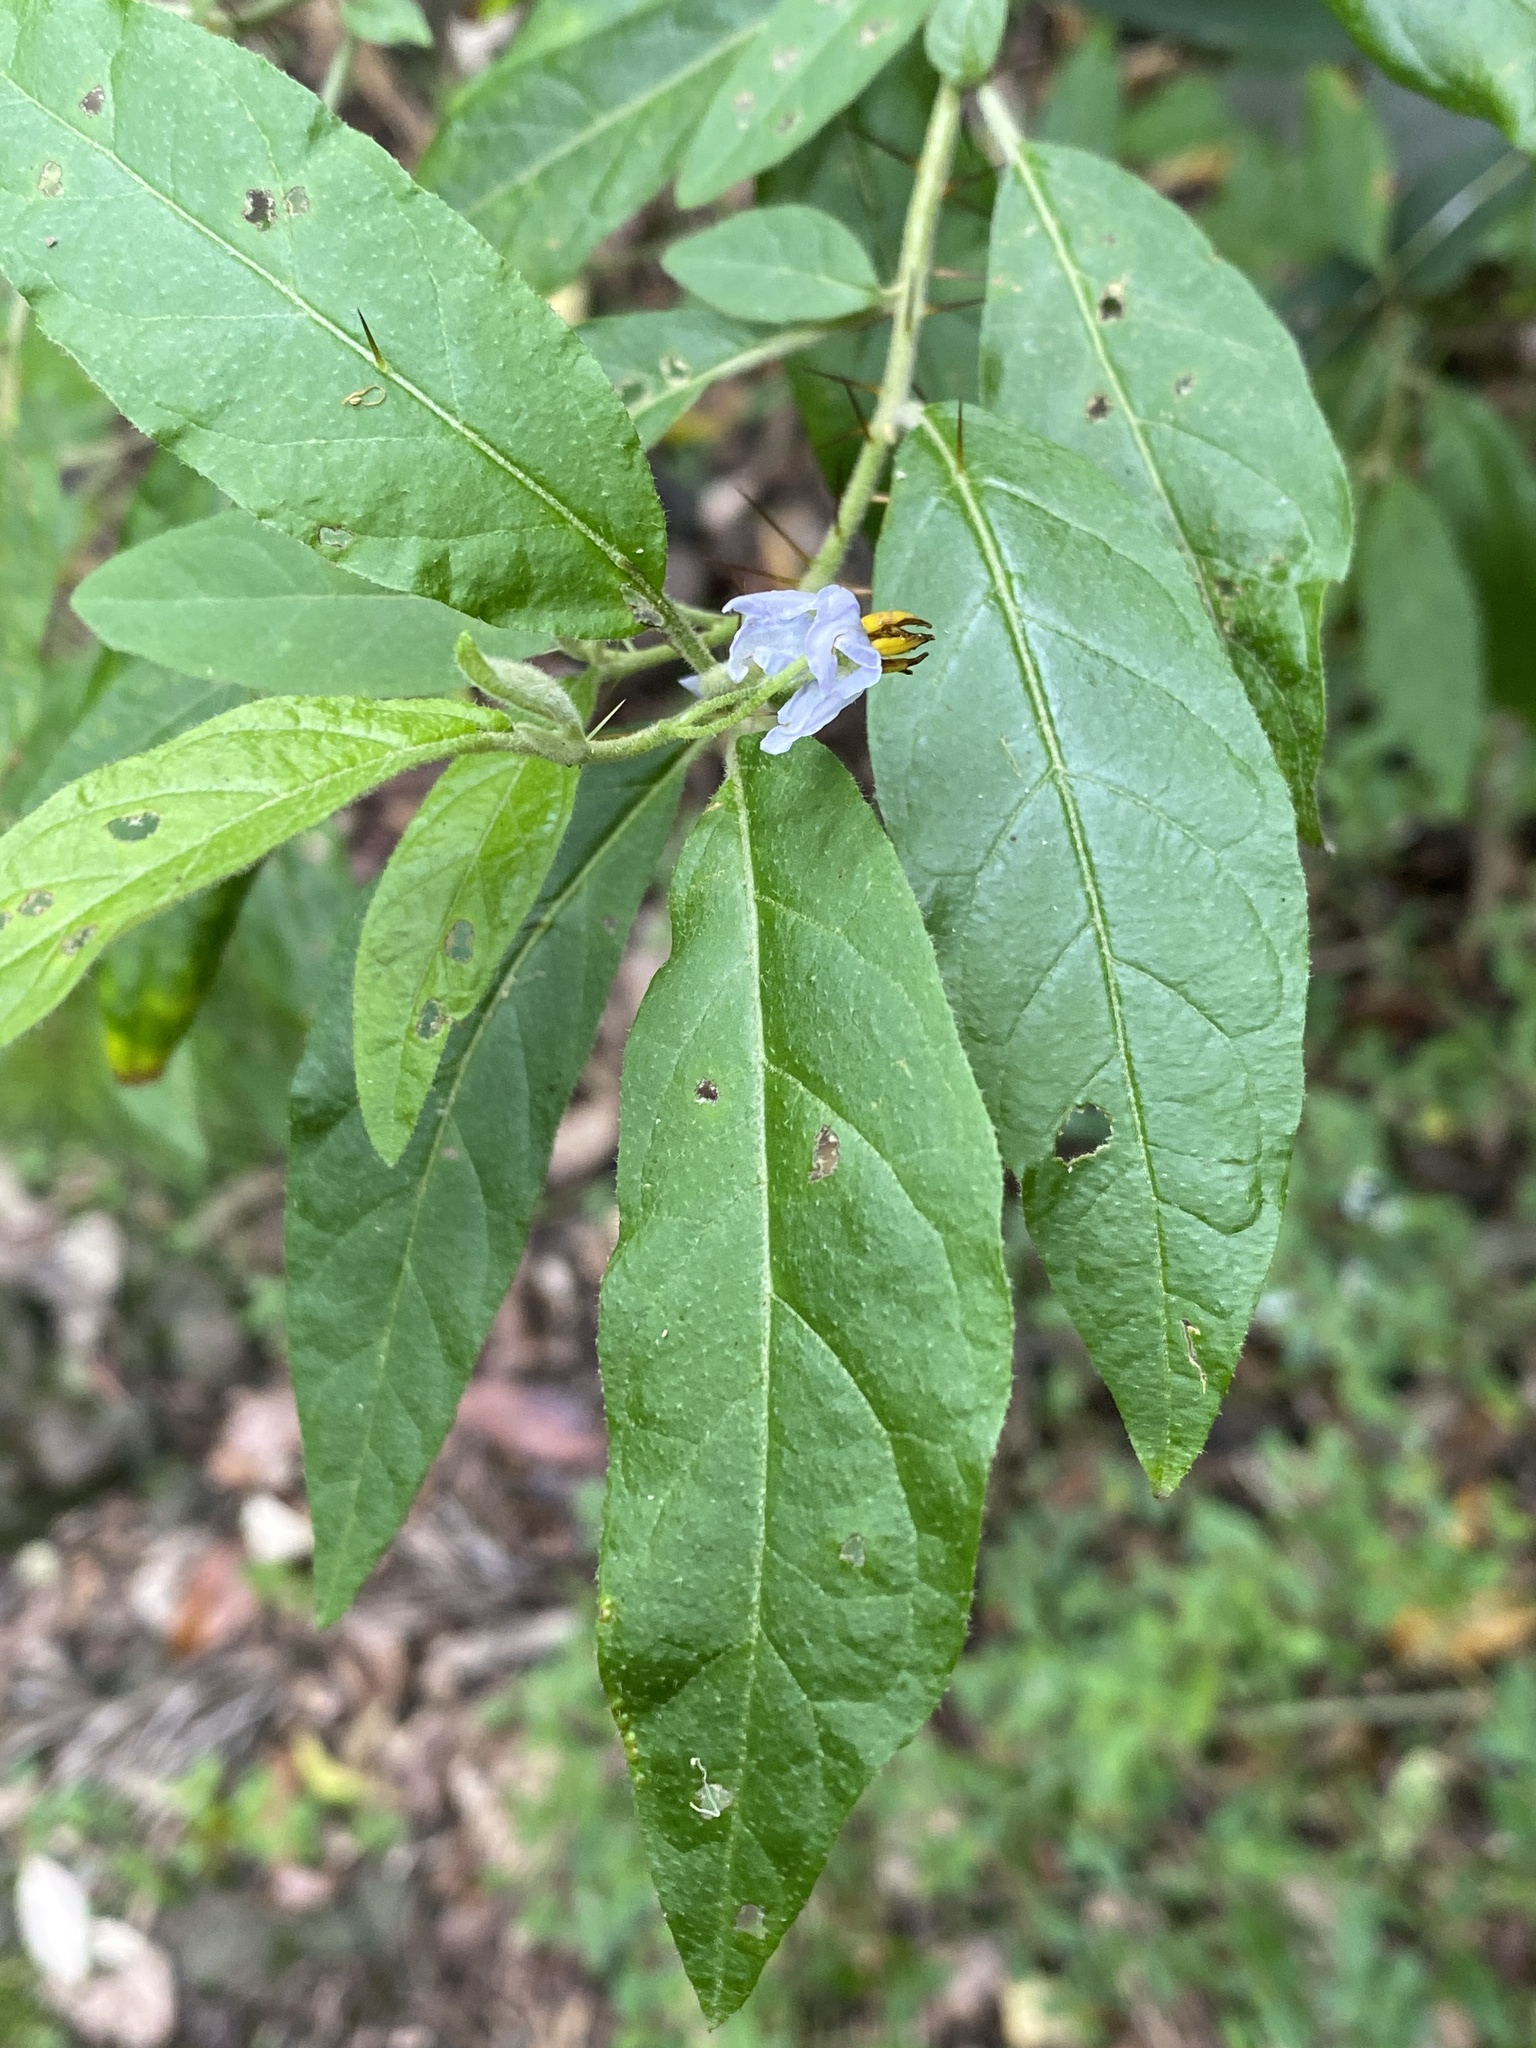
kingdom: Plantae
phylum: Tracheophyta
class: Magnoliopsida
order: Solanales
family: Solanaceae
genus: Solanum
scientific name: Solanum stelligerum
